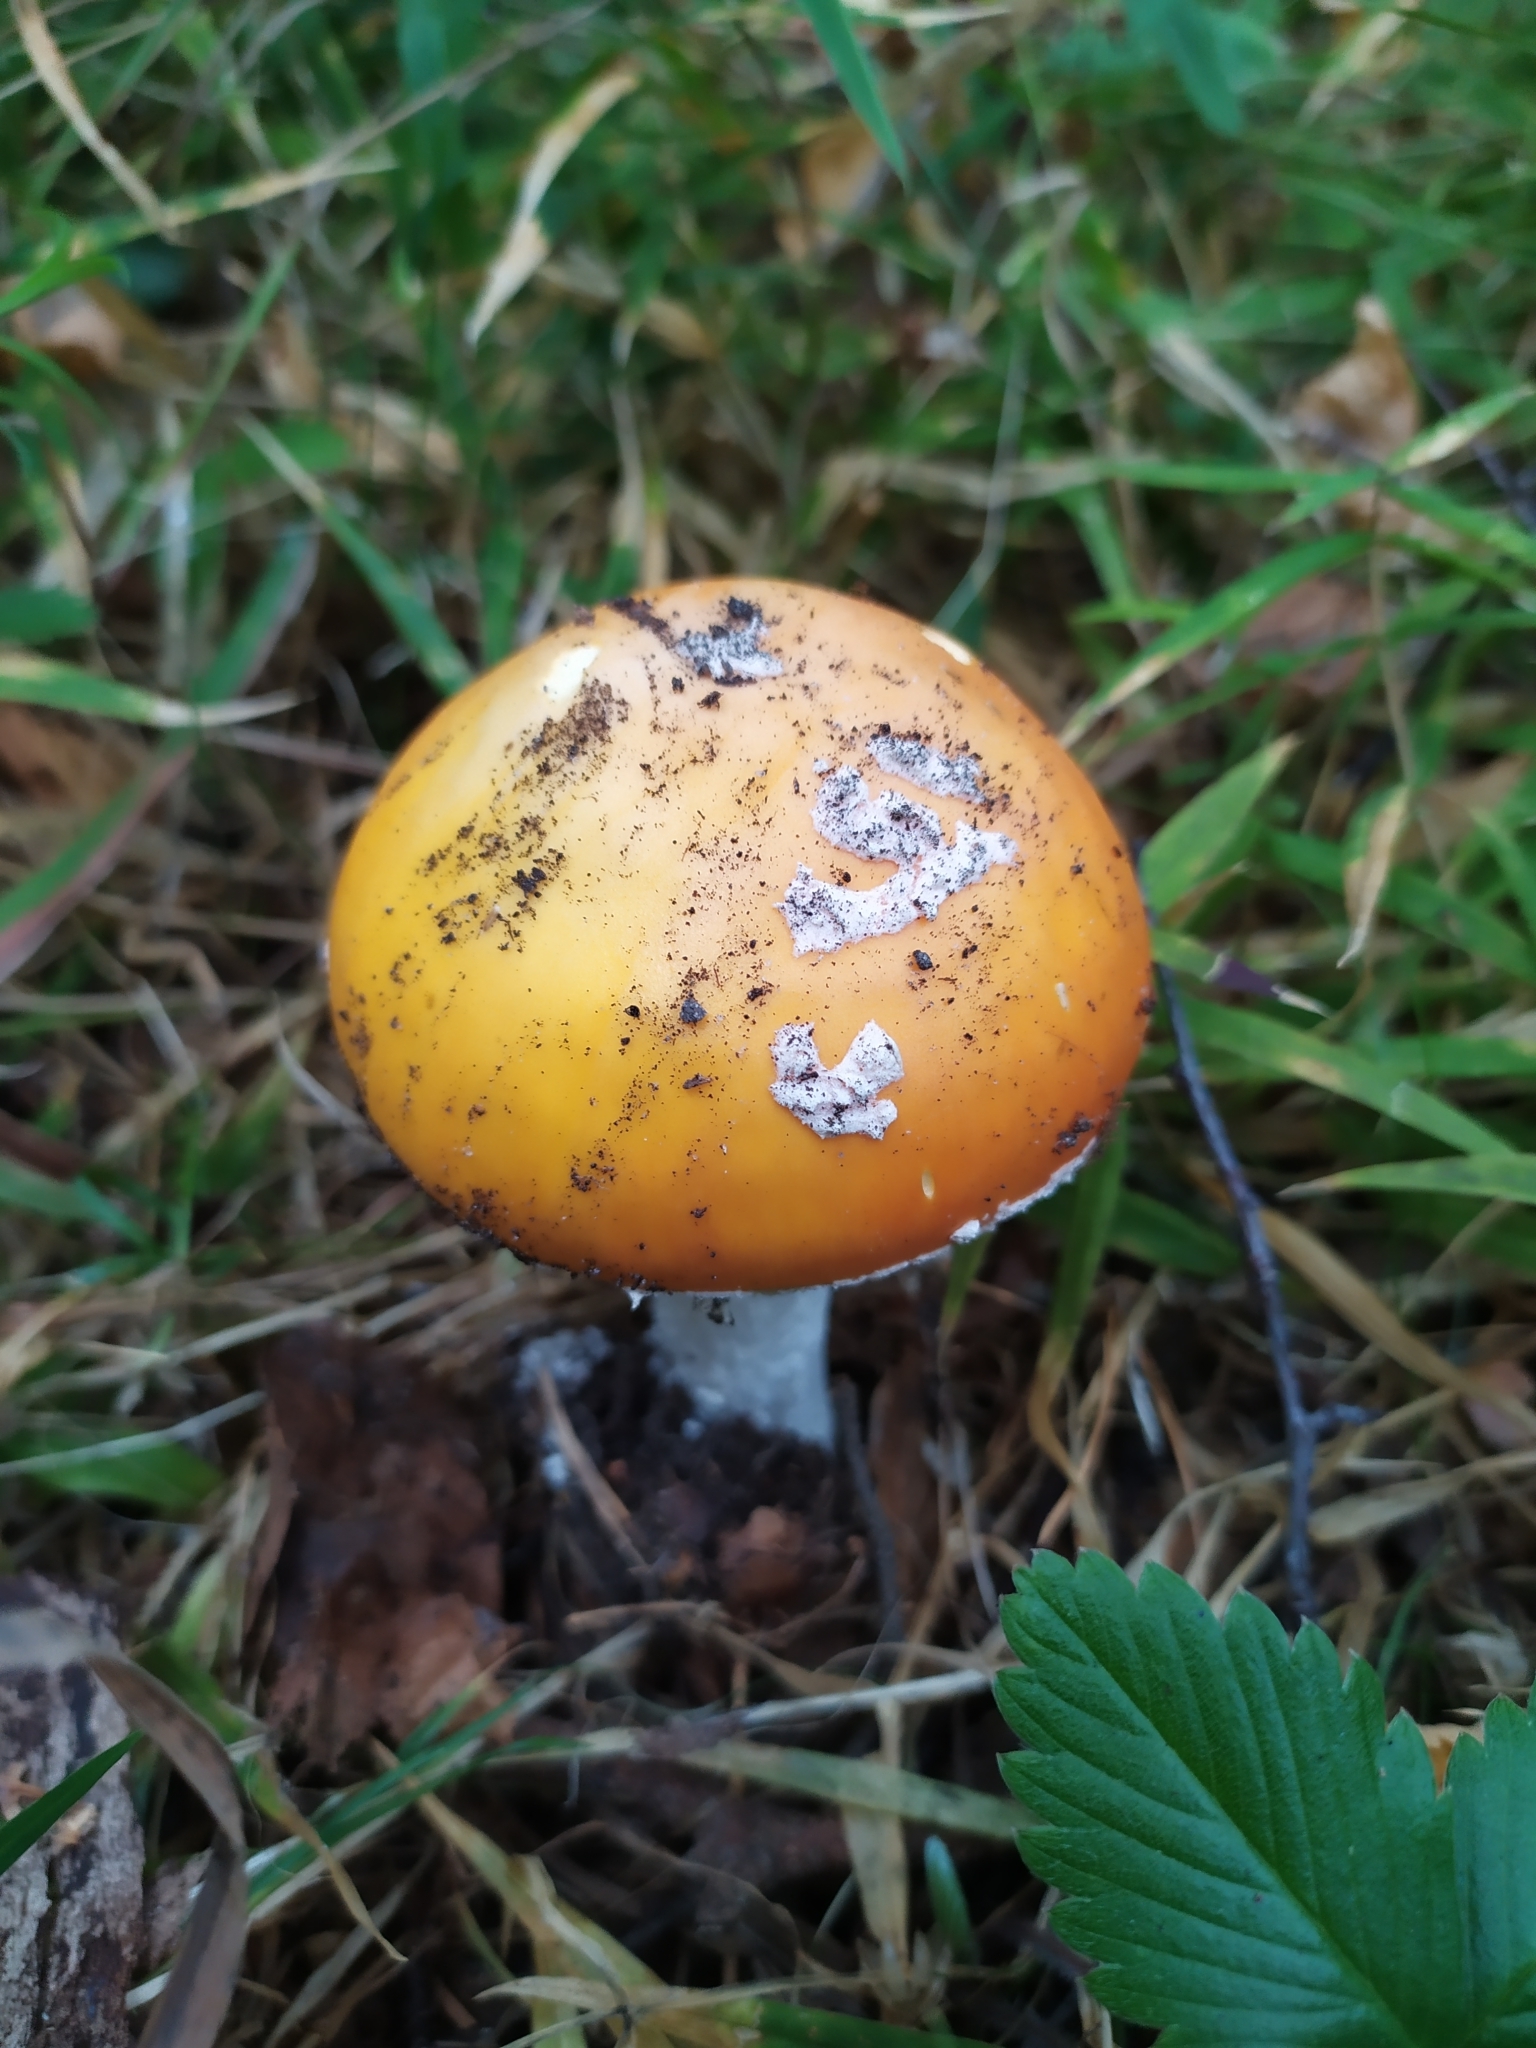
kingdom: Fungi
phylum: Basidiomycota
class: Agaricomycetes
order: Agaricales
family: Amanitaceae
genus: Amanita
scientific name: Amanita muscaria
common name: Fly agaric
